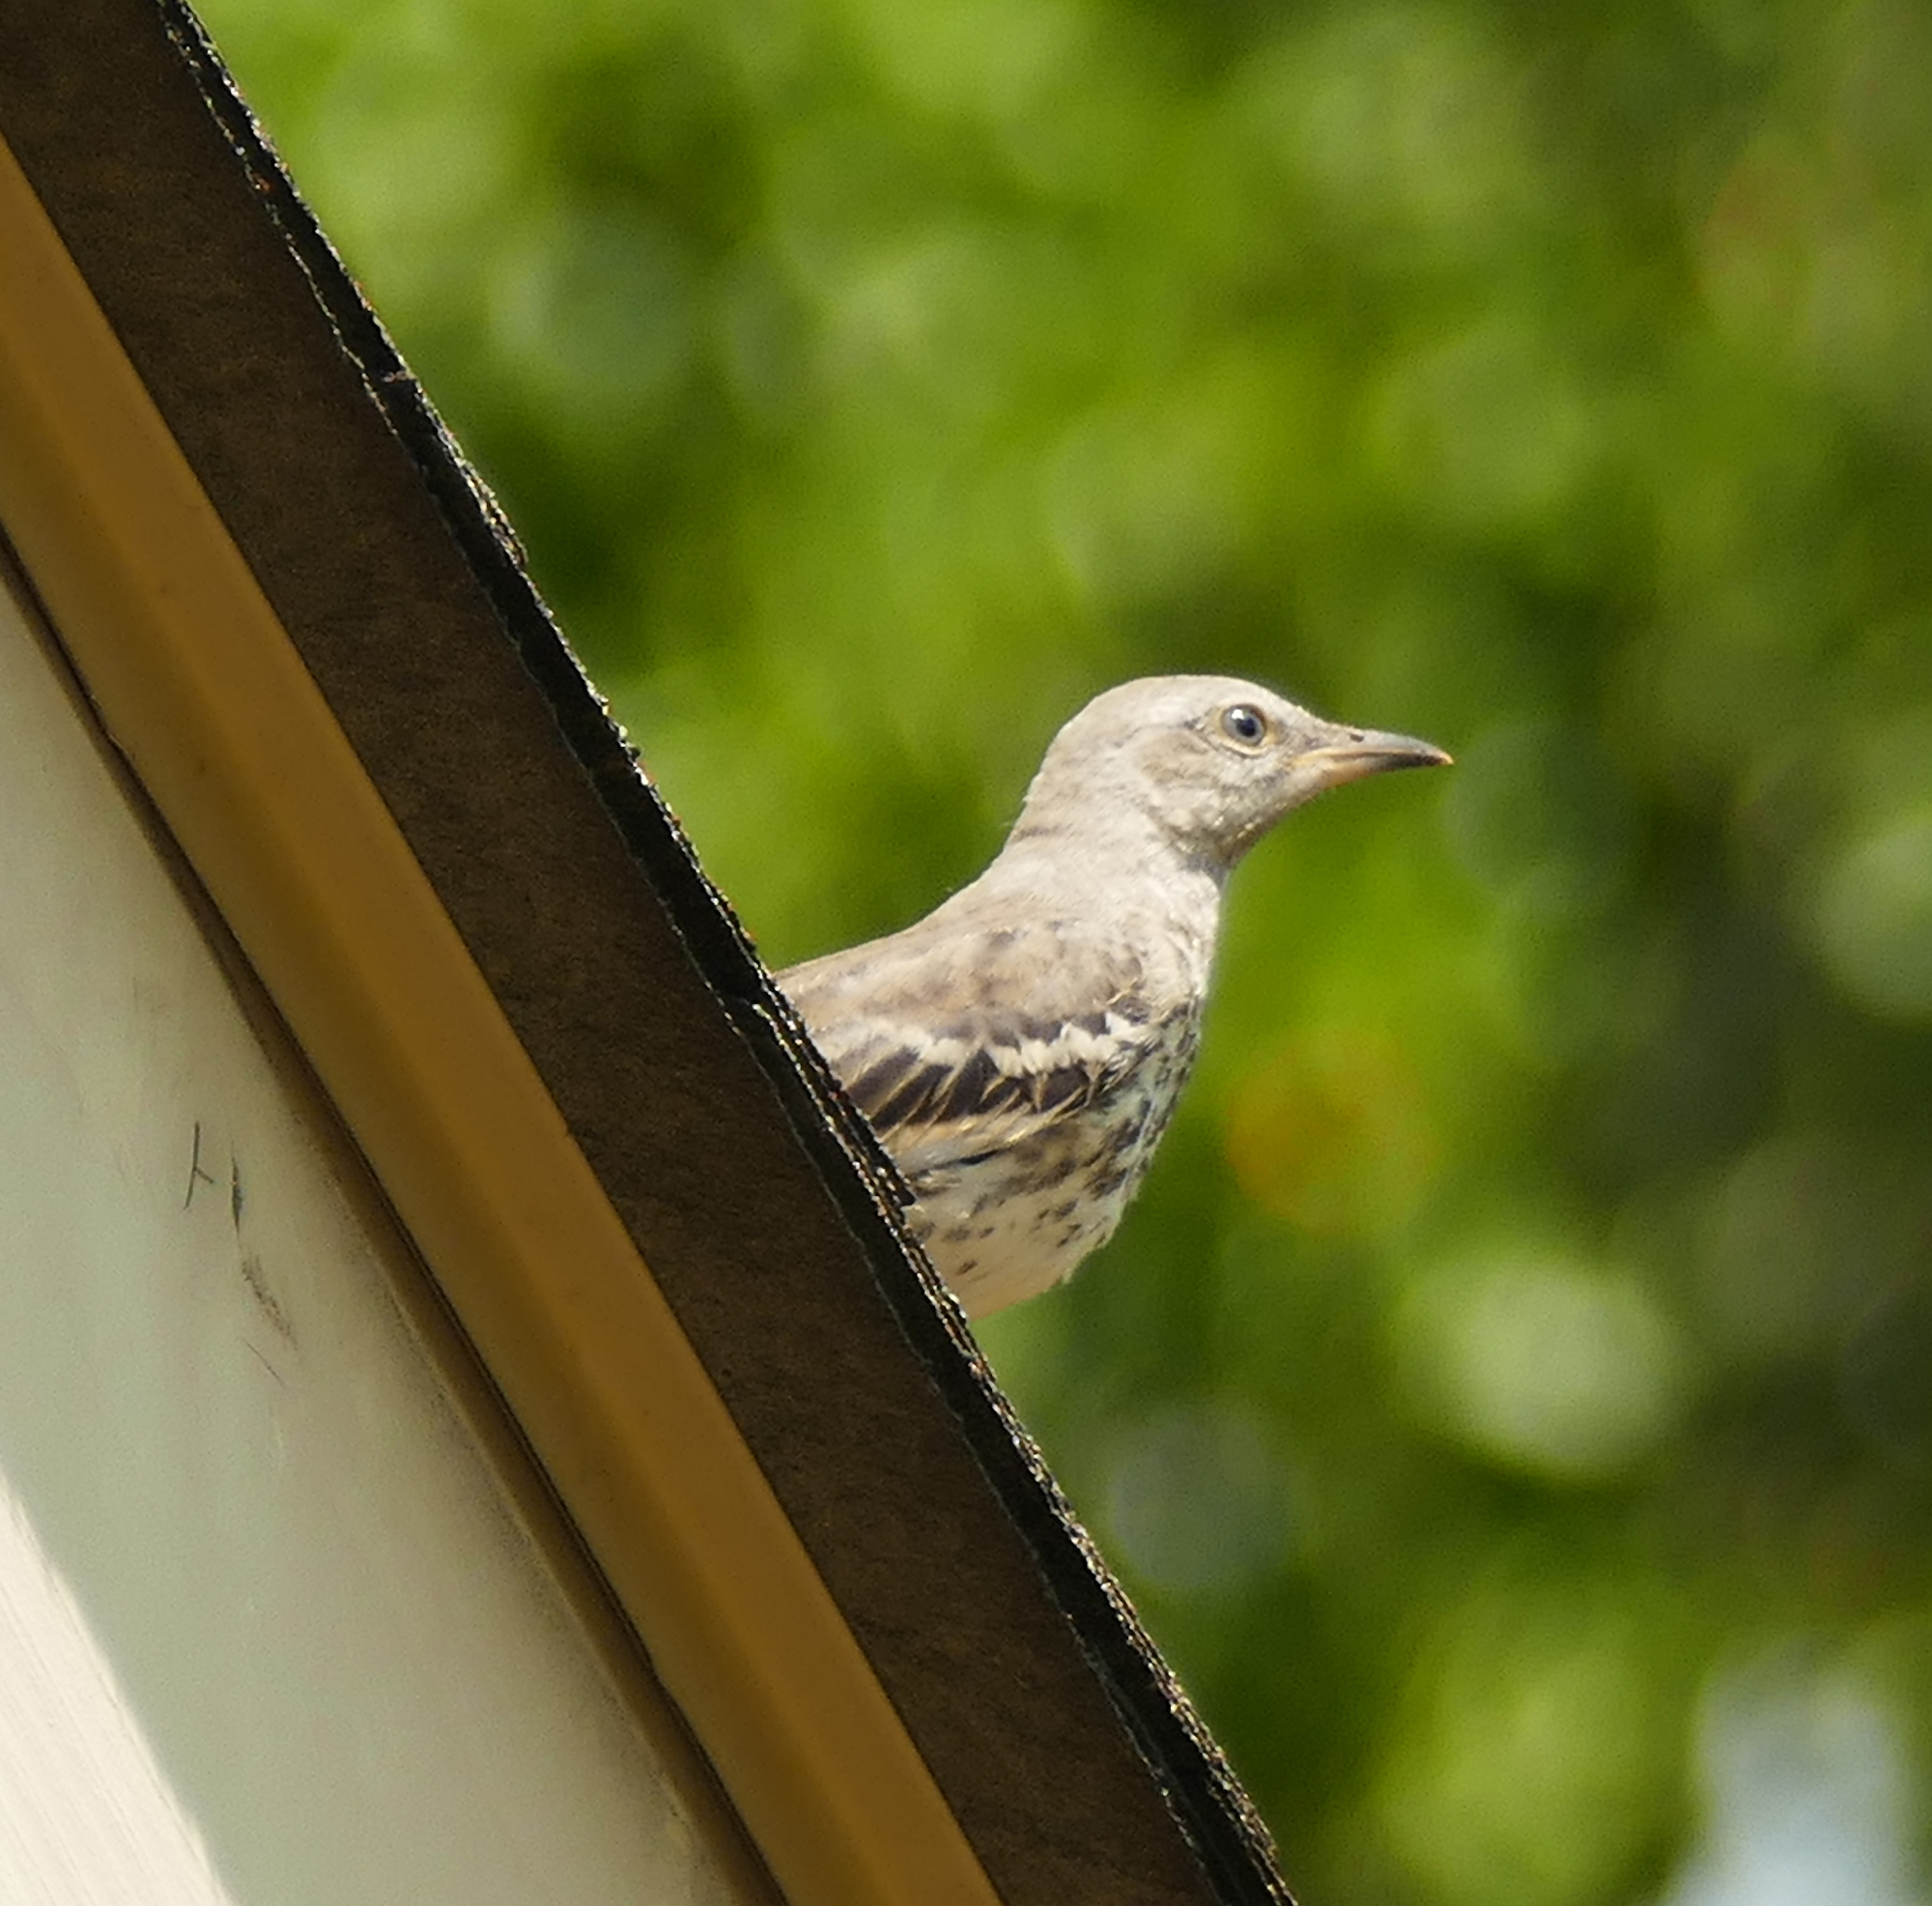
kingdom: Animalia
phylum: Chordata
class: Aves
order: Passeriformes
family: Mimidae
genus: Mimus
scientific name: Mimus polyglottos
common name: Northern mockingbird
